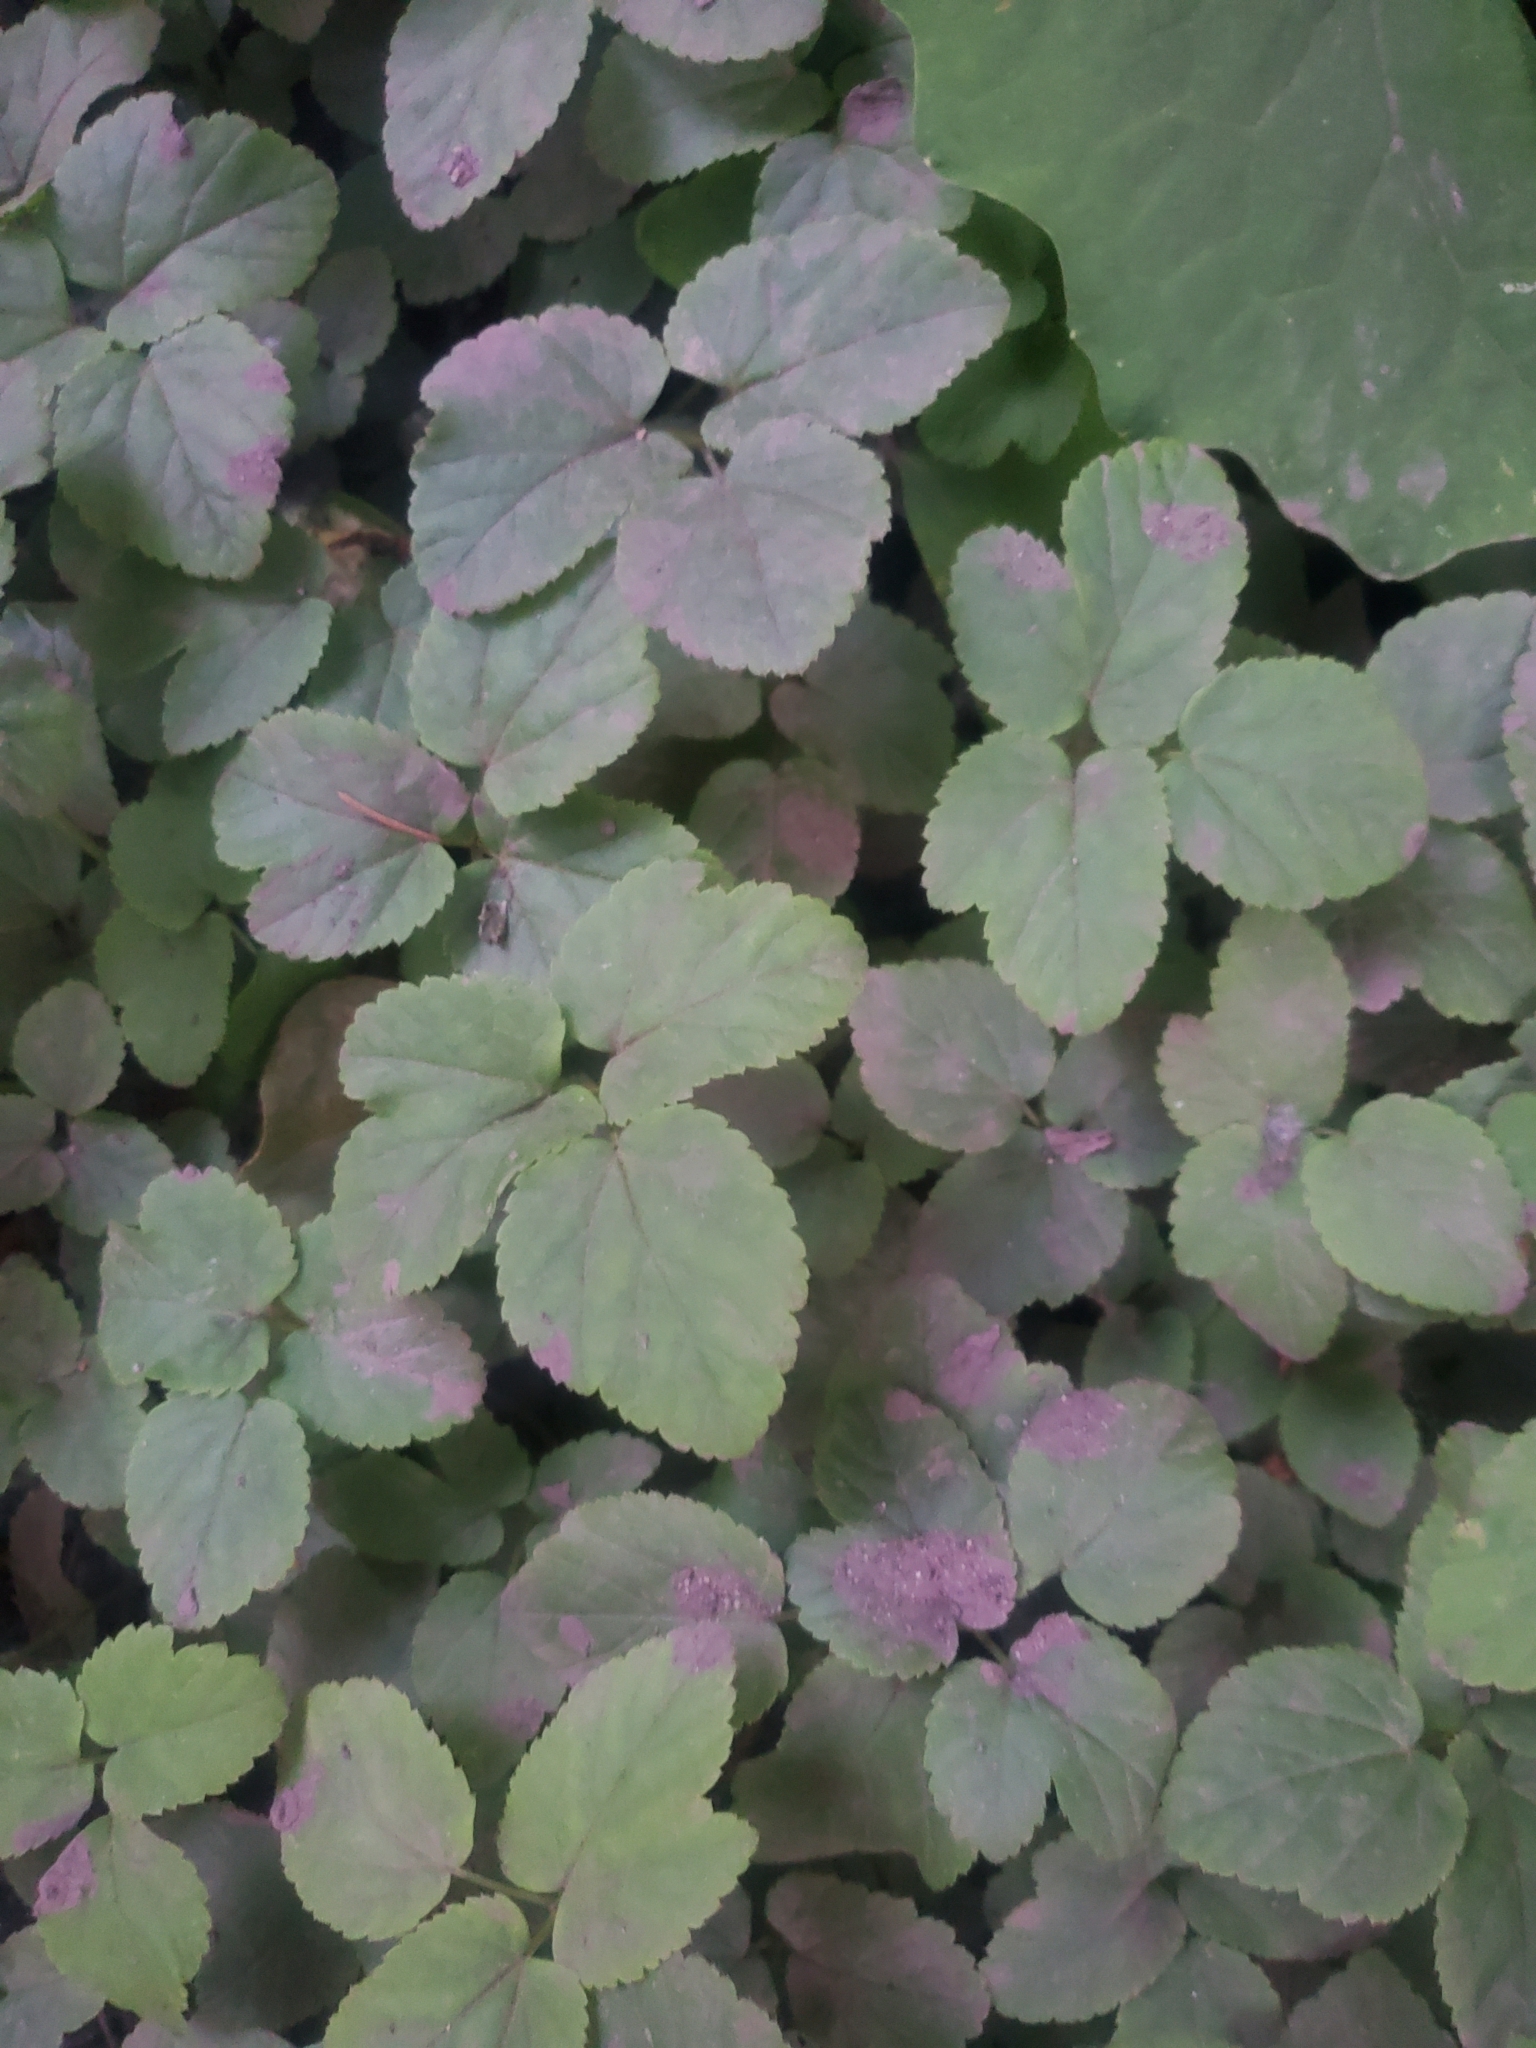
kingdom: Plantae
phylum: Tracheophyta
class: Magnoliopsida
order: Apiales
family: Apiaceae
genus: Aegopodium
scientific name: Aegopodium podagraria
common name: Ground-elder
